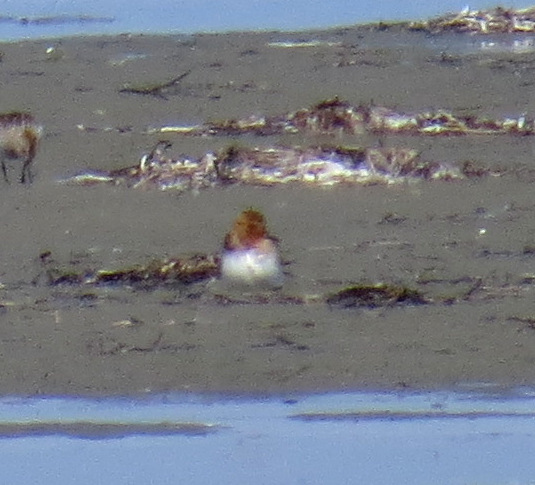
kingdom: Animalia
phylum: Chordata
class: Aves
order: Charadriiformes
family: Scolopacidae
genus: Calidris
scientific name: Calidris ruficollis
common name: Red-necked stint
